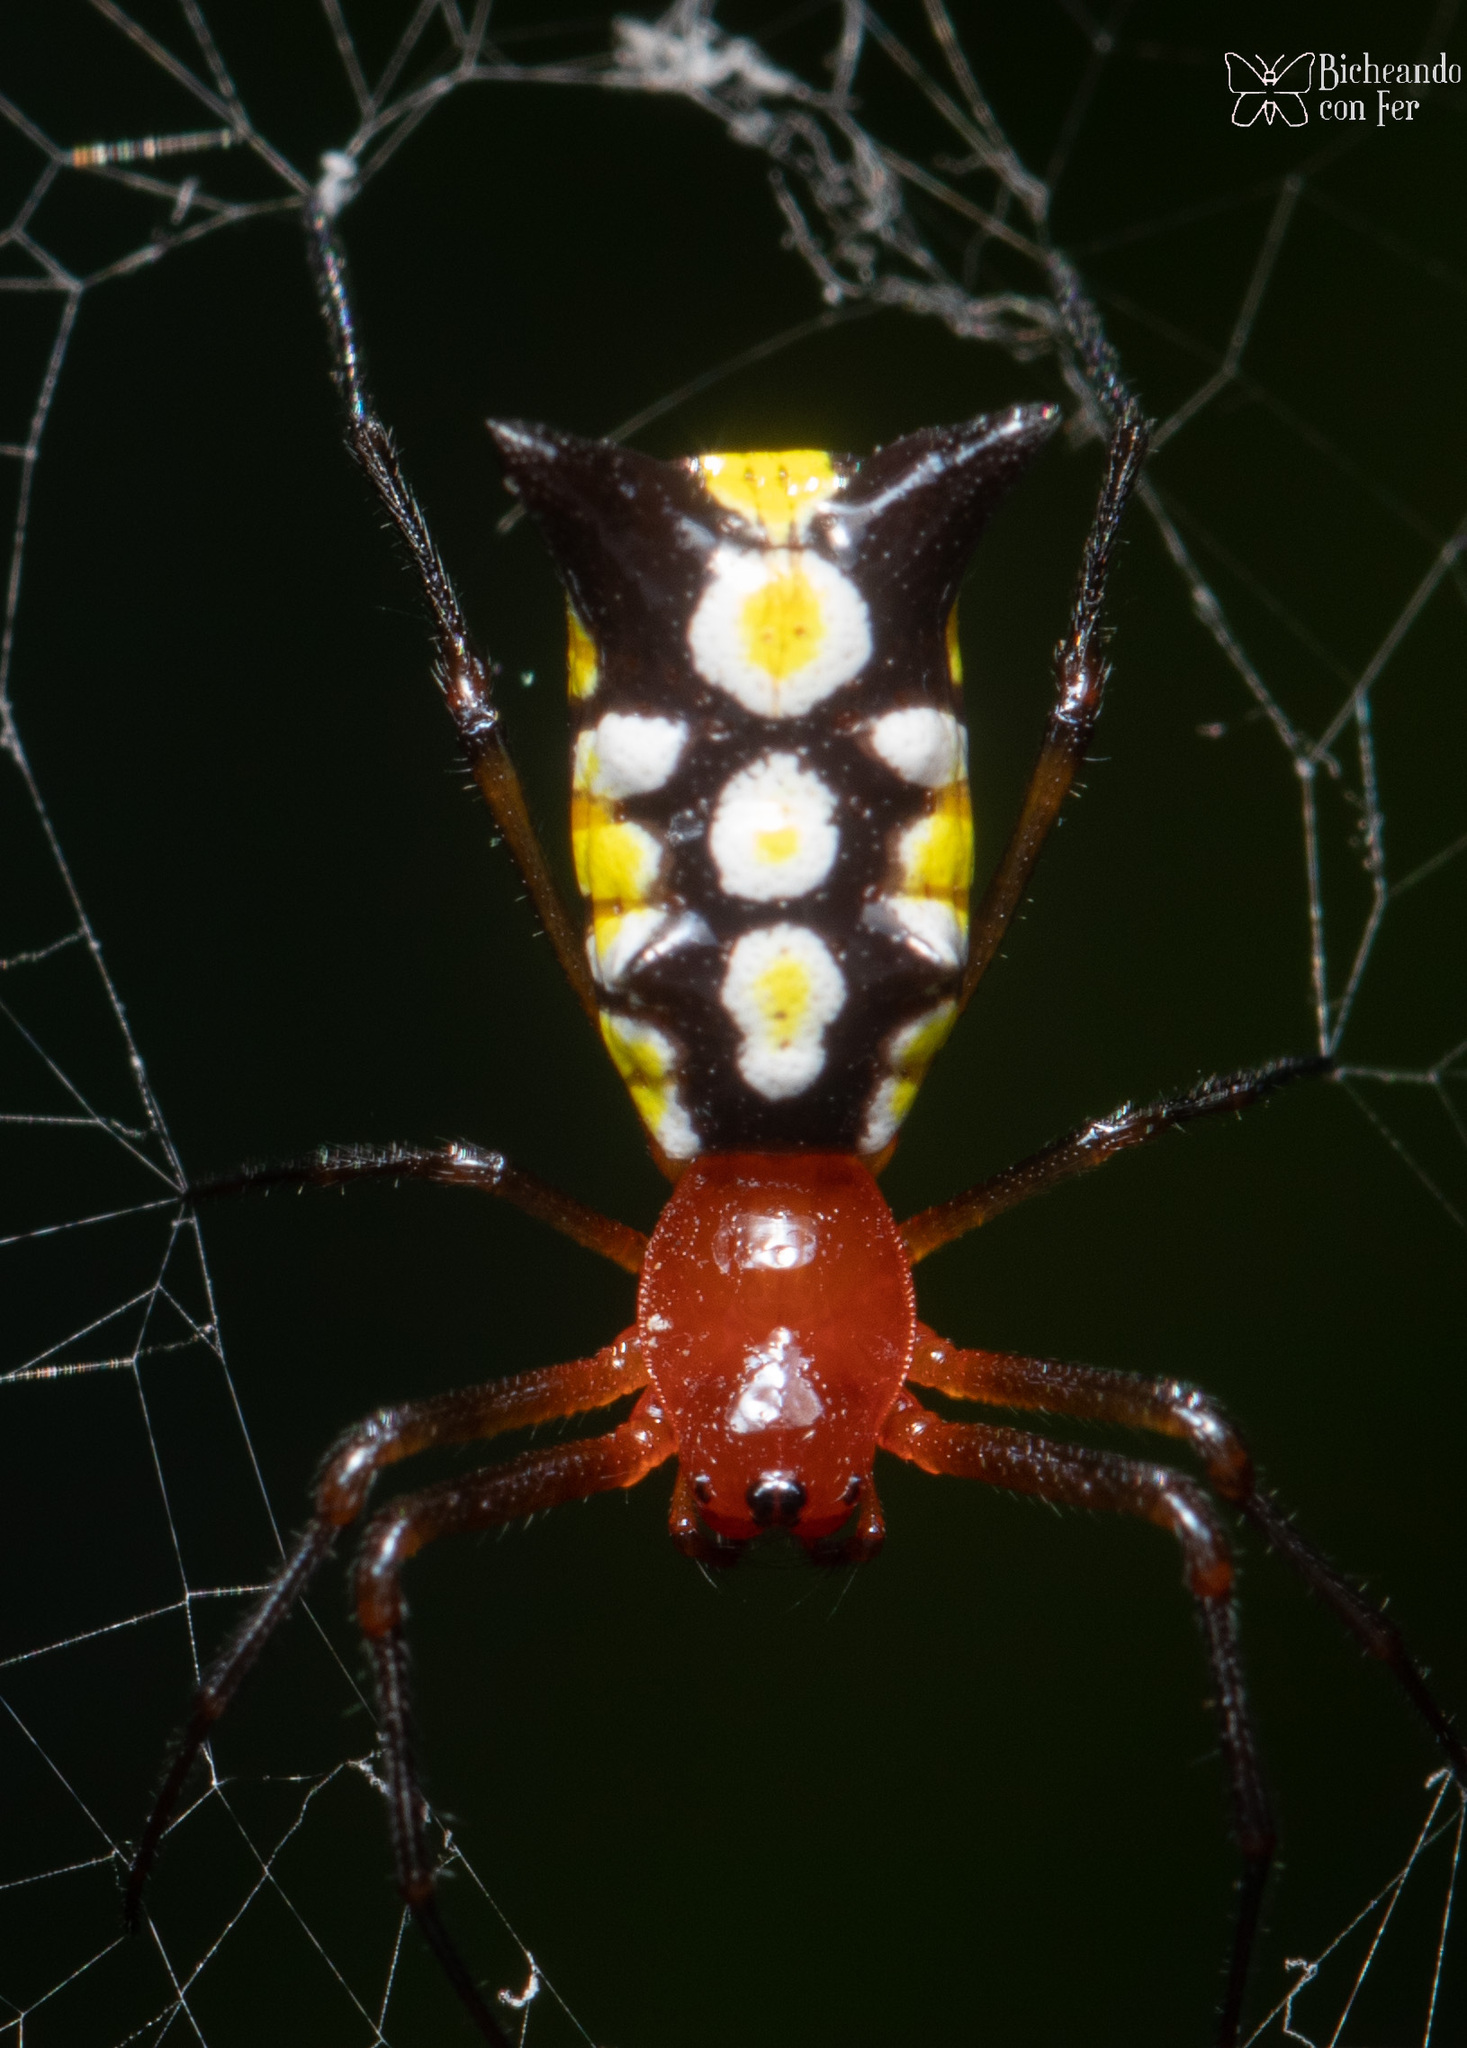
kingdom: Animalia
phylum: Arthropoda
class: Arachnida
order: Araneae
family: Araneidae
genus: Micrathena
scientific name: Micrathena funebris
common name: Orb weavers
